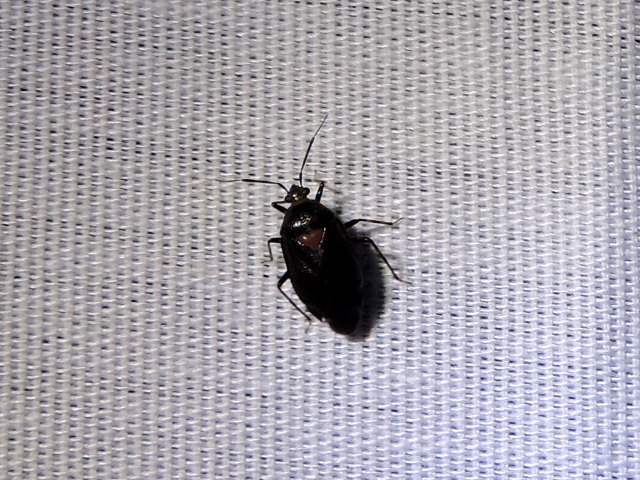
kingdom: Animalia
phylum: Arthropoda
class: Insecta
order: Hemiptera
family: Miridae
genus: Deraeocoris
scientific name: Deraeocoris sayi
